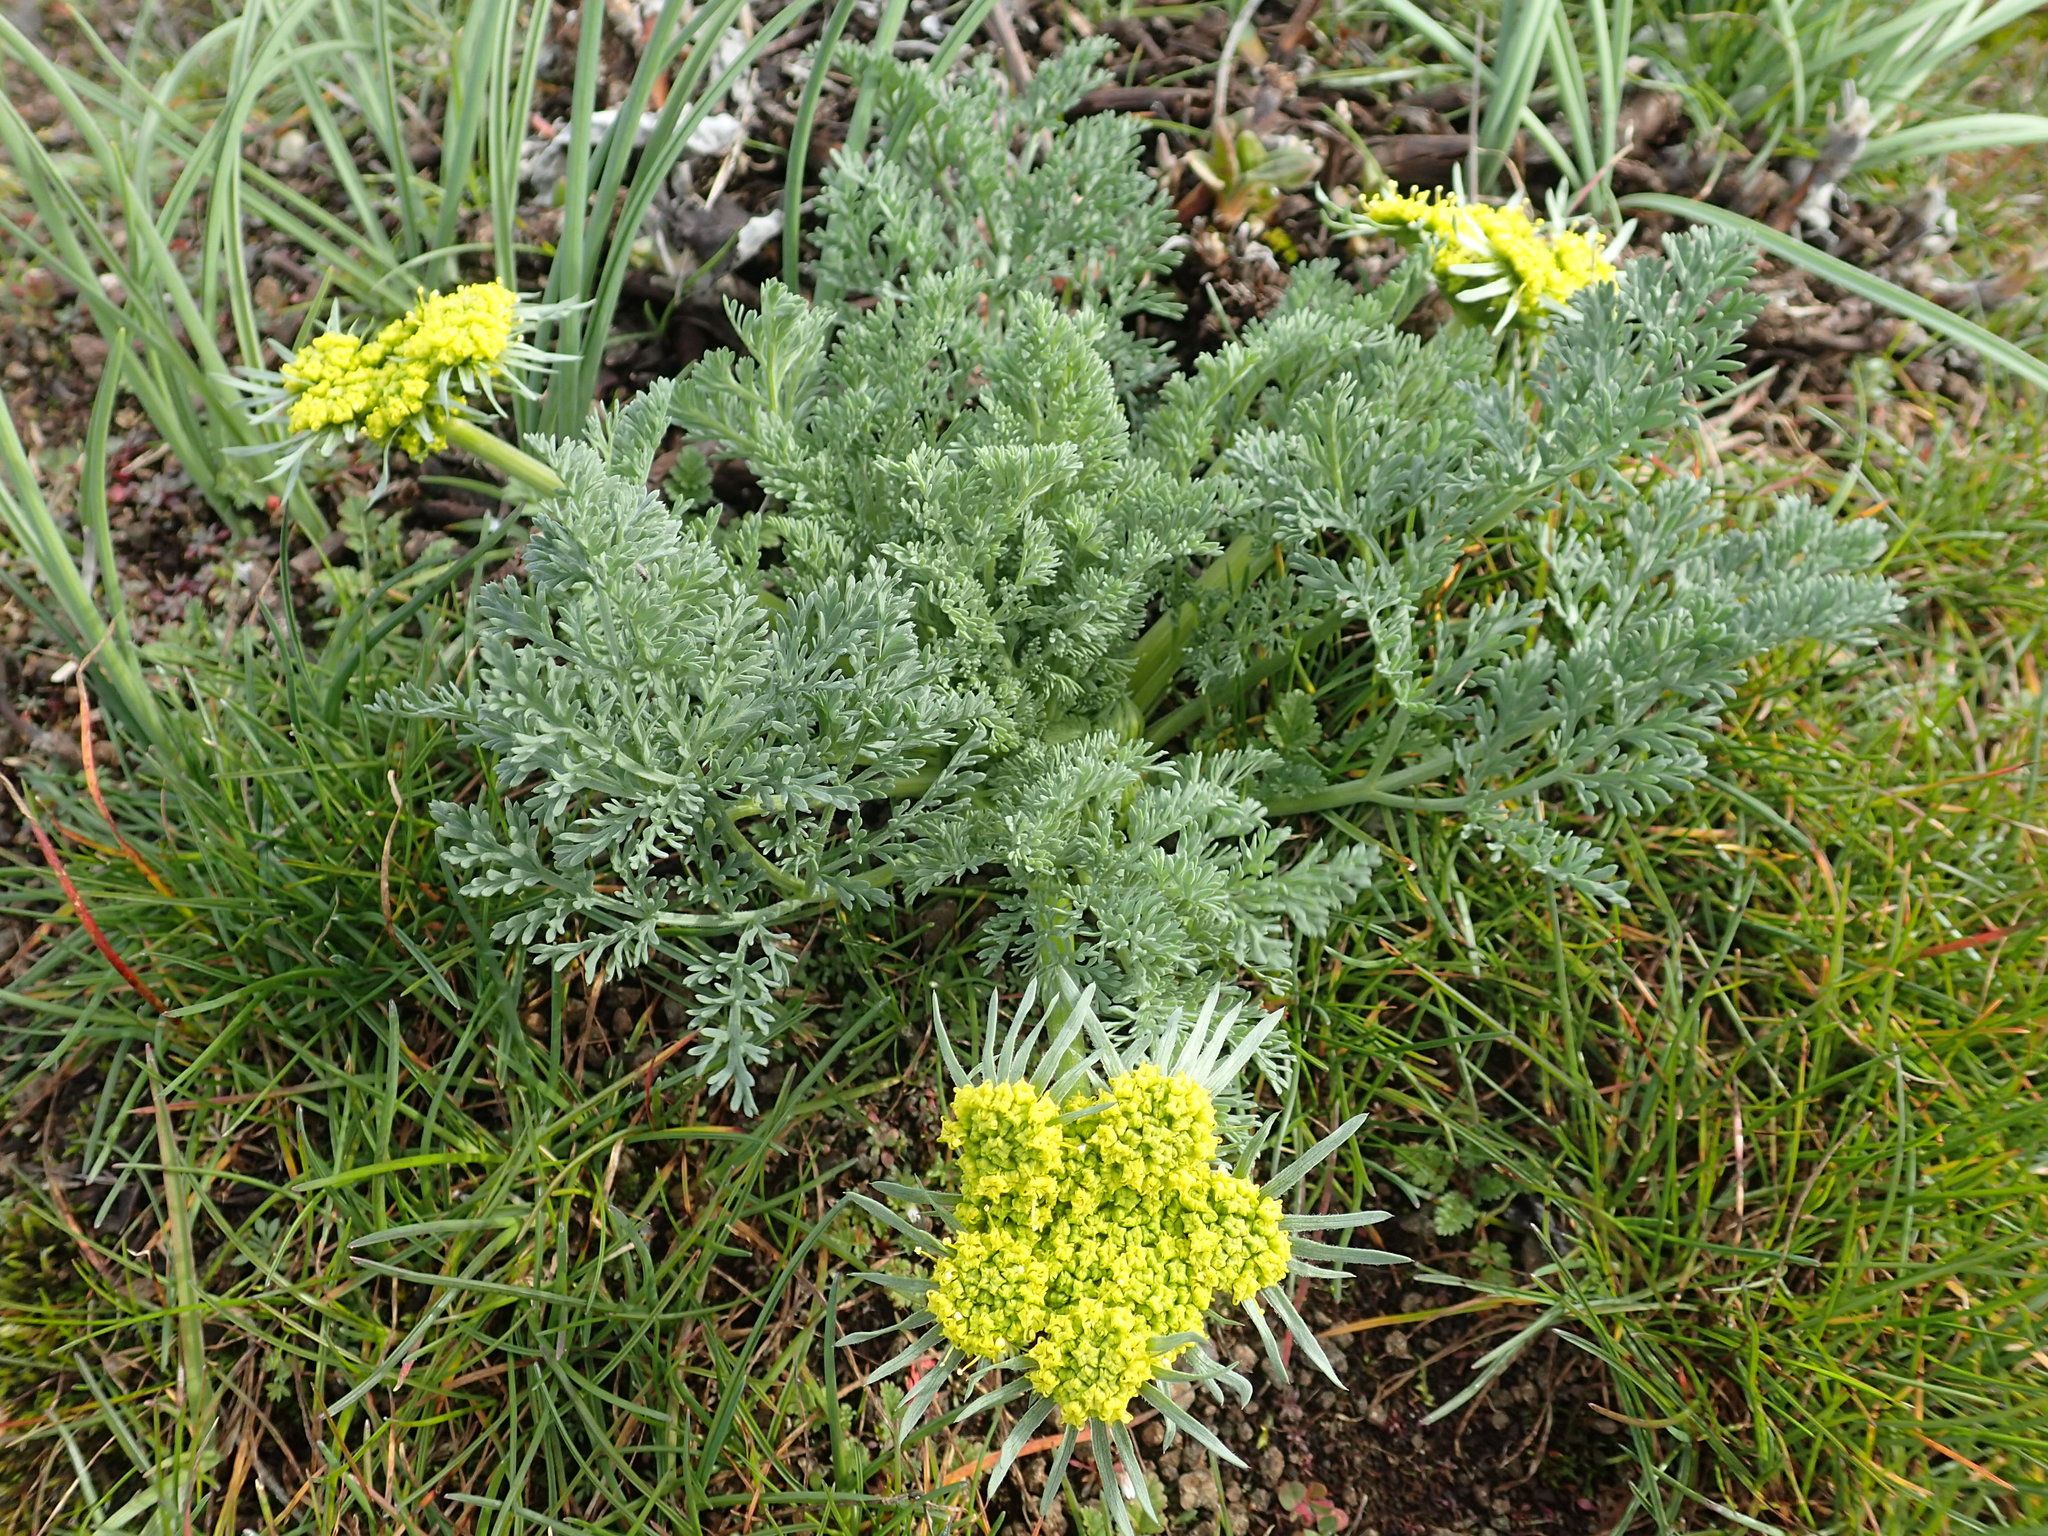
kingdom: Plantae
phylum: Tracheophyta
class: Magnoliopsida
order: Apiales
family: Apiaceae
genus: Lomatium
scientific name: Lomatium macrocarpum
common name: Big-seed biscuitroot
